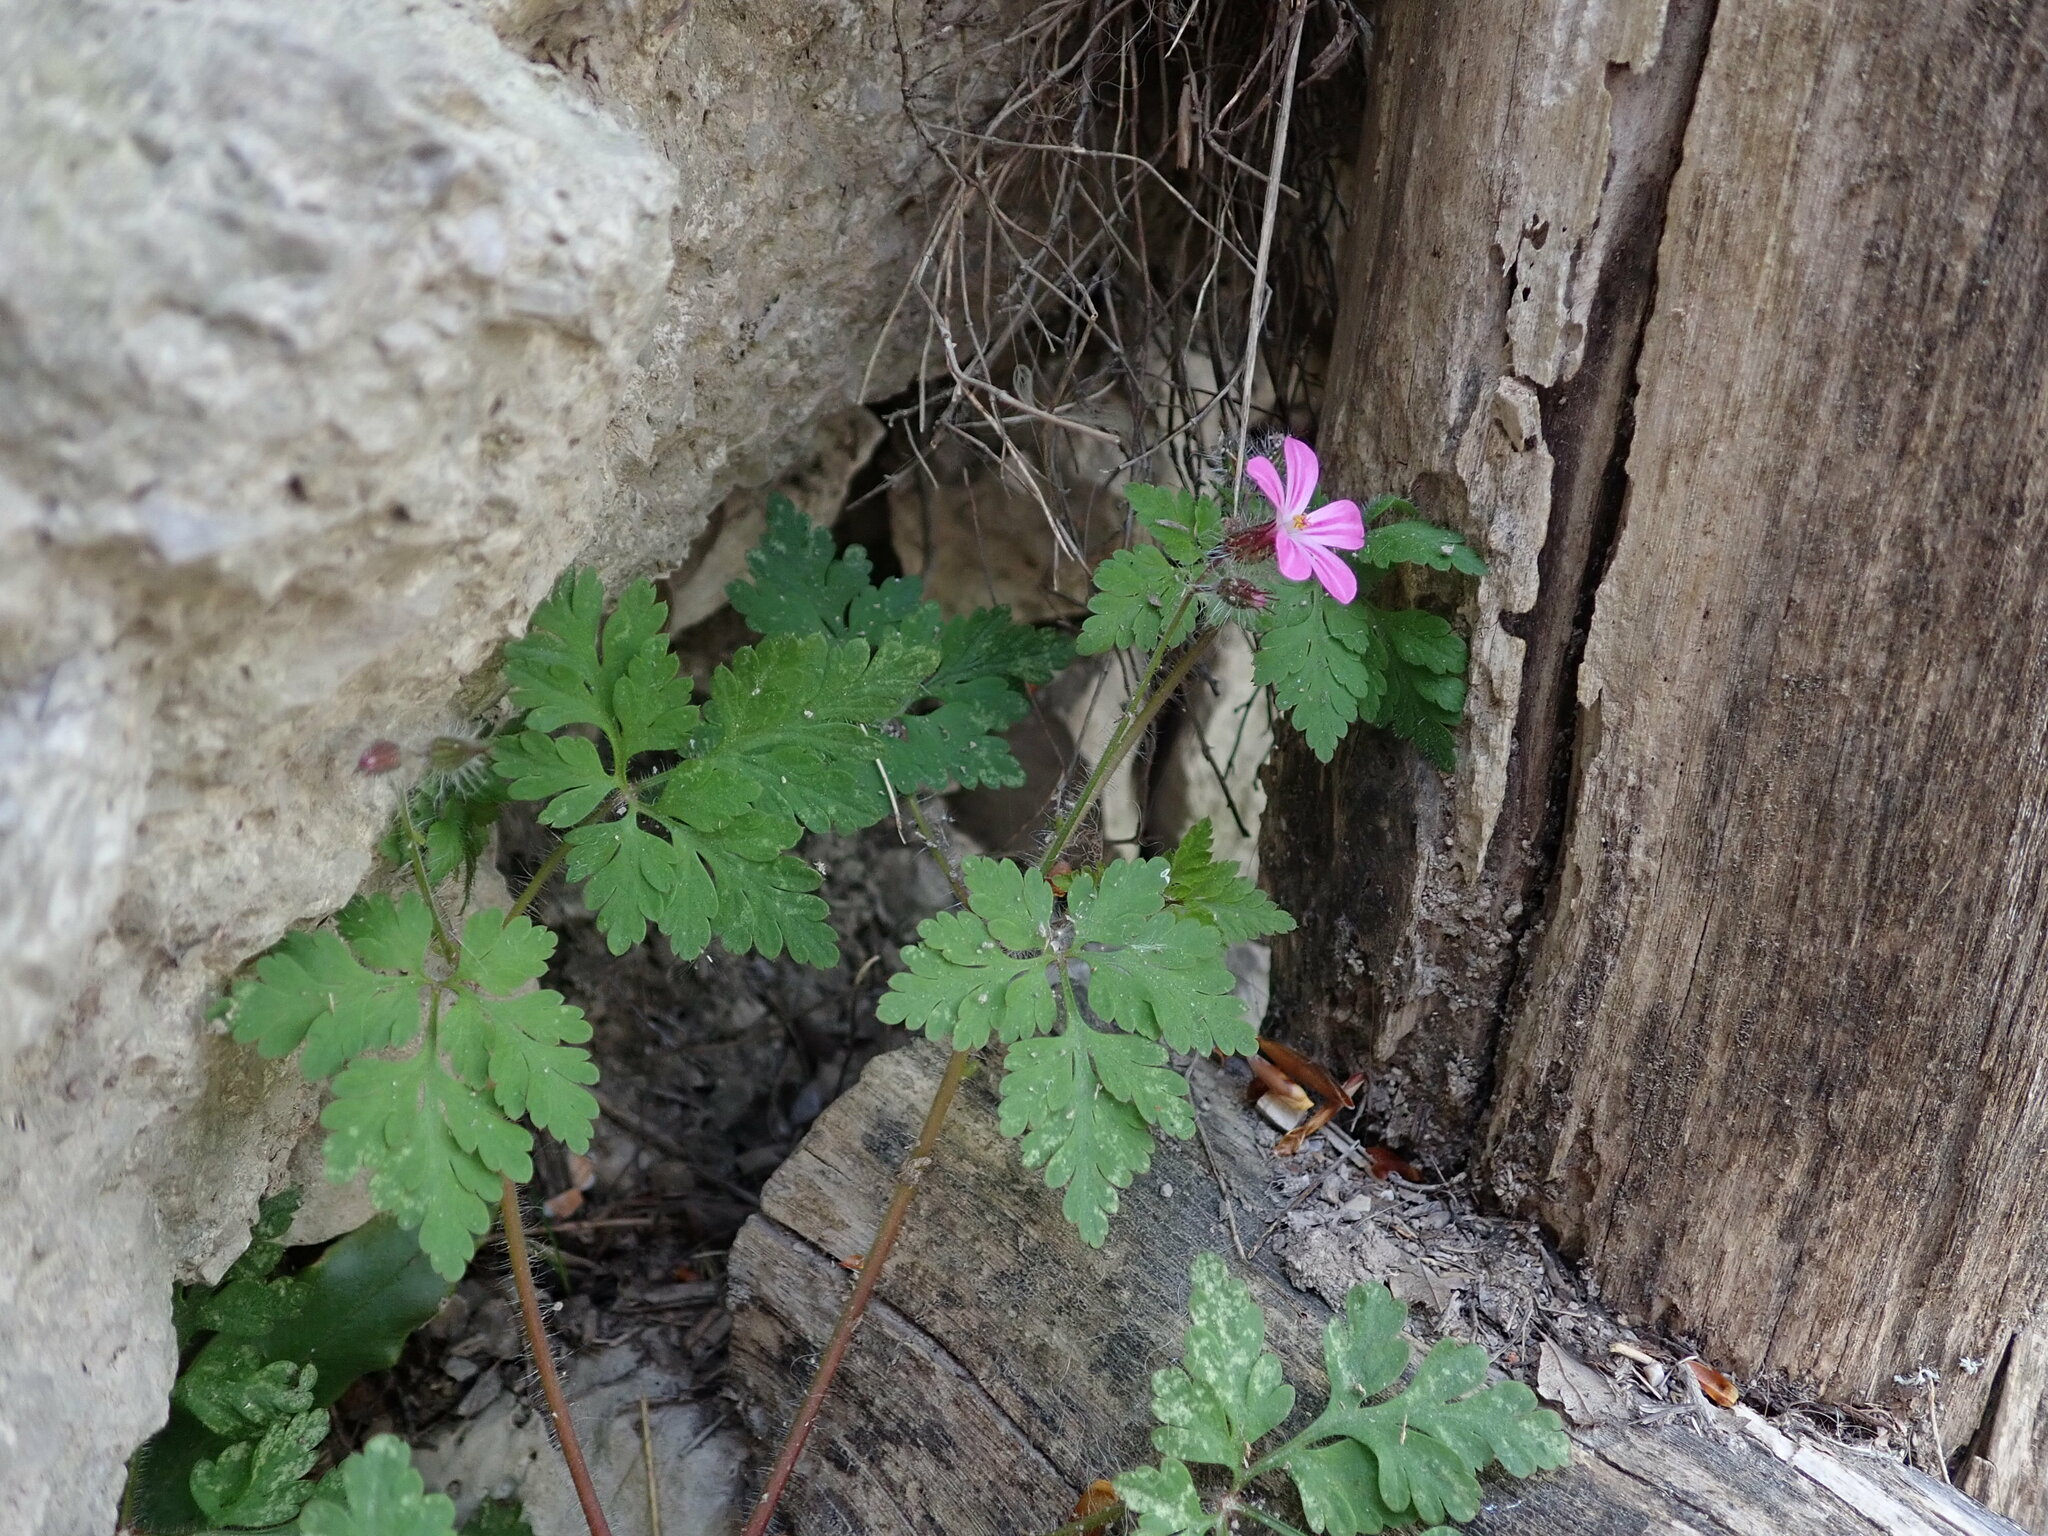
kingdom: Plantae
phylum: Tracheophyta
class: Magnoliopsida
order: Geraniales
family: Geraniaceae
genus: Geranium
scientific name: Geranium robertianum
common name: Herb-robert
